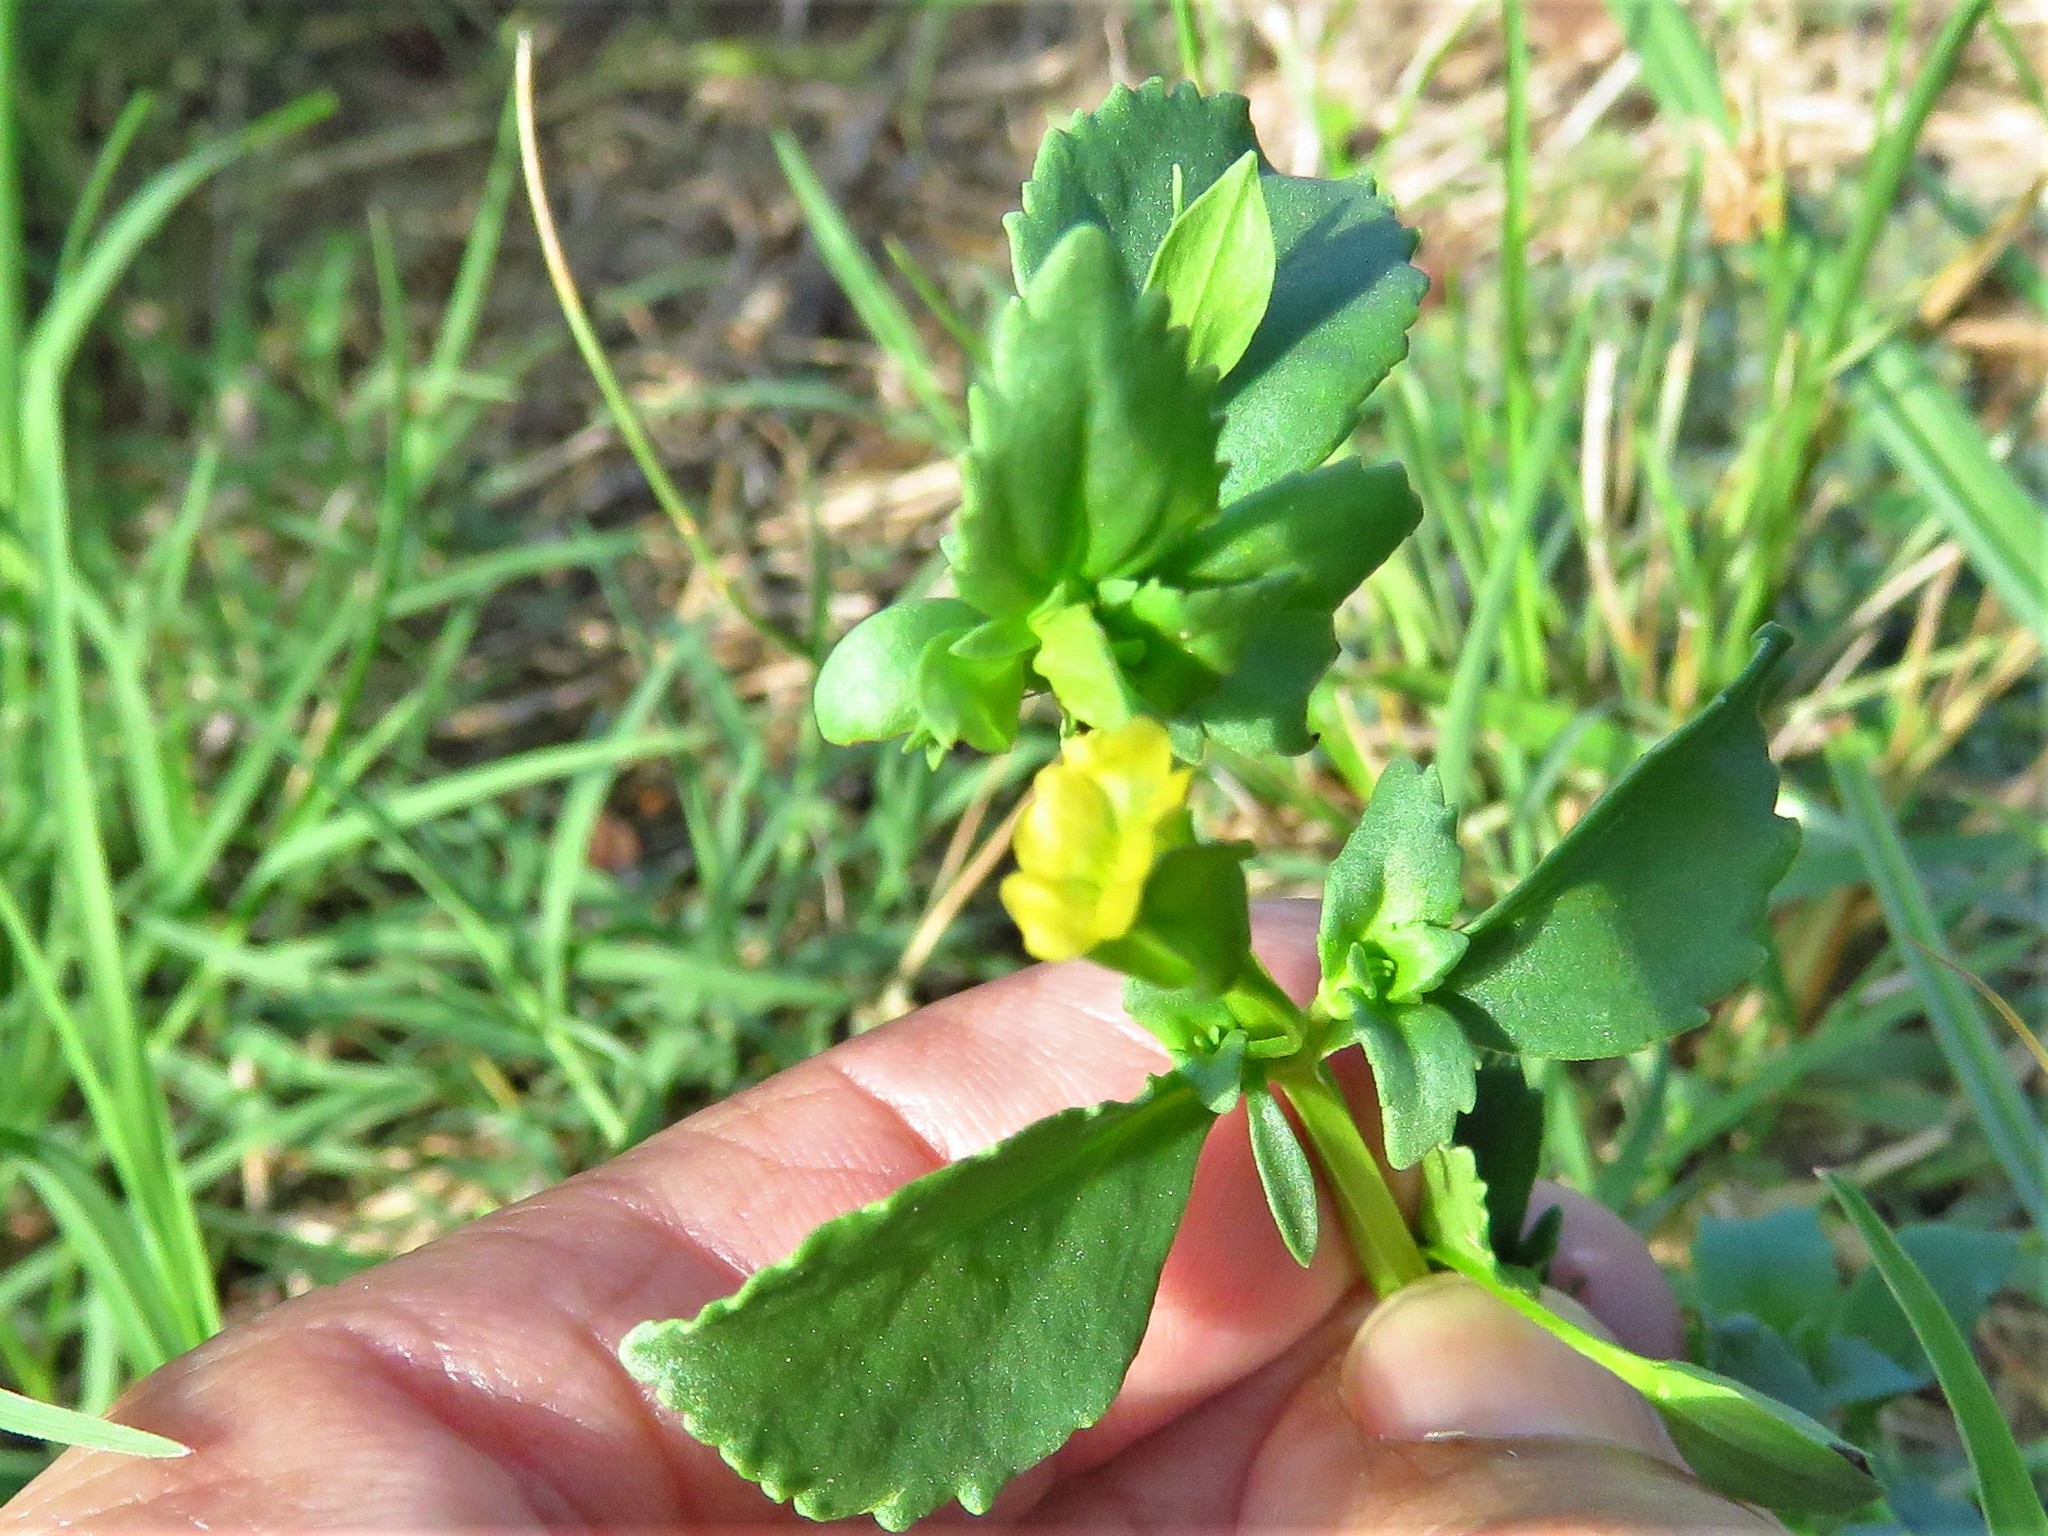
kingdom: Plantae
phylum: Tracheophyta
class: Magnoliopsida
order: Lamiales
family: Plantaginaceae
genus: Mecardonia
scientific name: Mecardonia procumbens
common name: Baby jump-up
